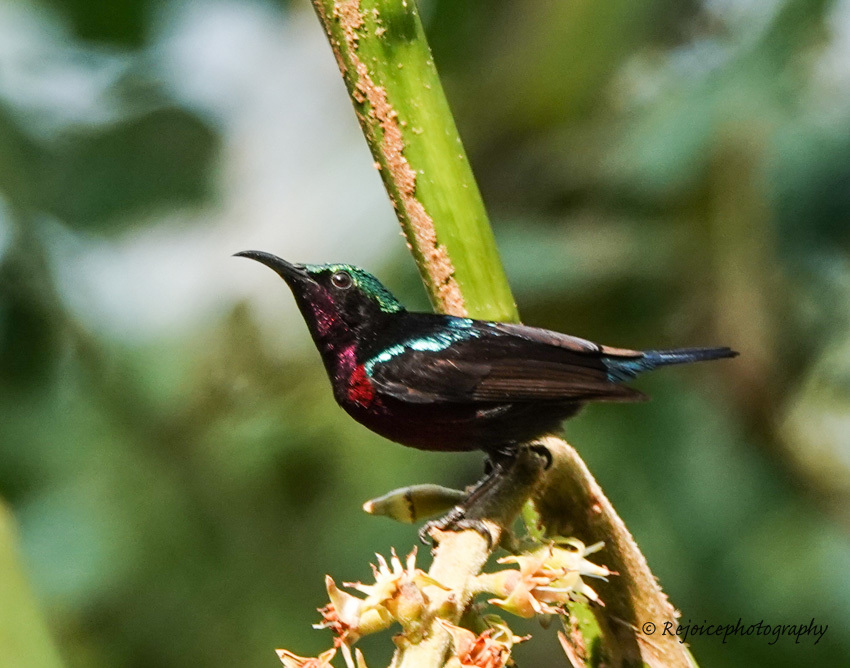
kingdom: Animalia
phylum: Chordata
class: Aves
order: Passeriformes
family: Nectariniidae
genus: Leptocoma
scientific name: Leptocoma brasiliana
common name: Van hasselt's sunbird
